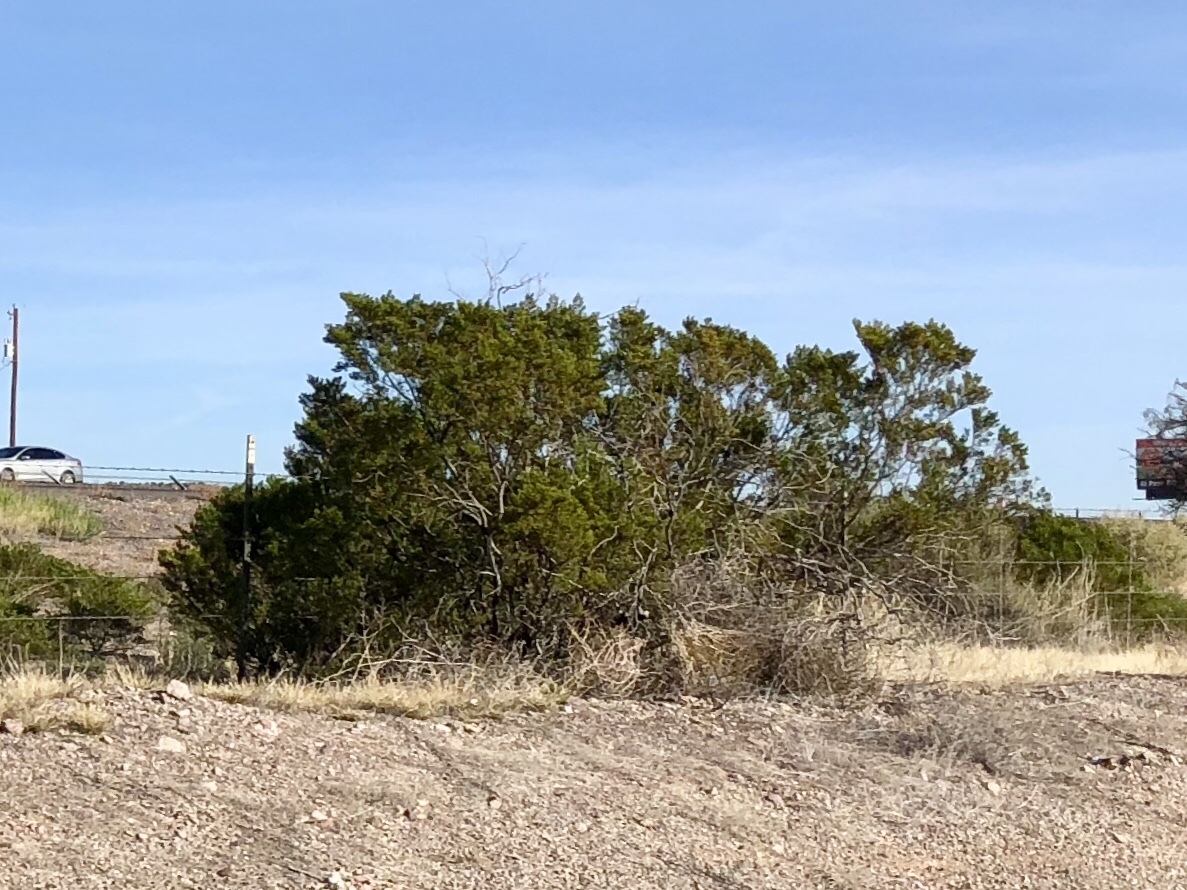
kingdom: Plantae
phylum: Tracheophyta
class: Magnoliopsida
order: Zygophyllales
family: Zygophyllaceae
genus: Larrea
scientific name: Larrea tridentata
